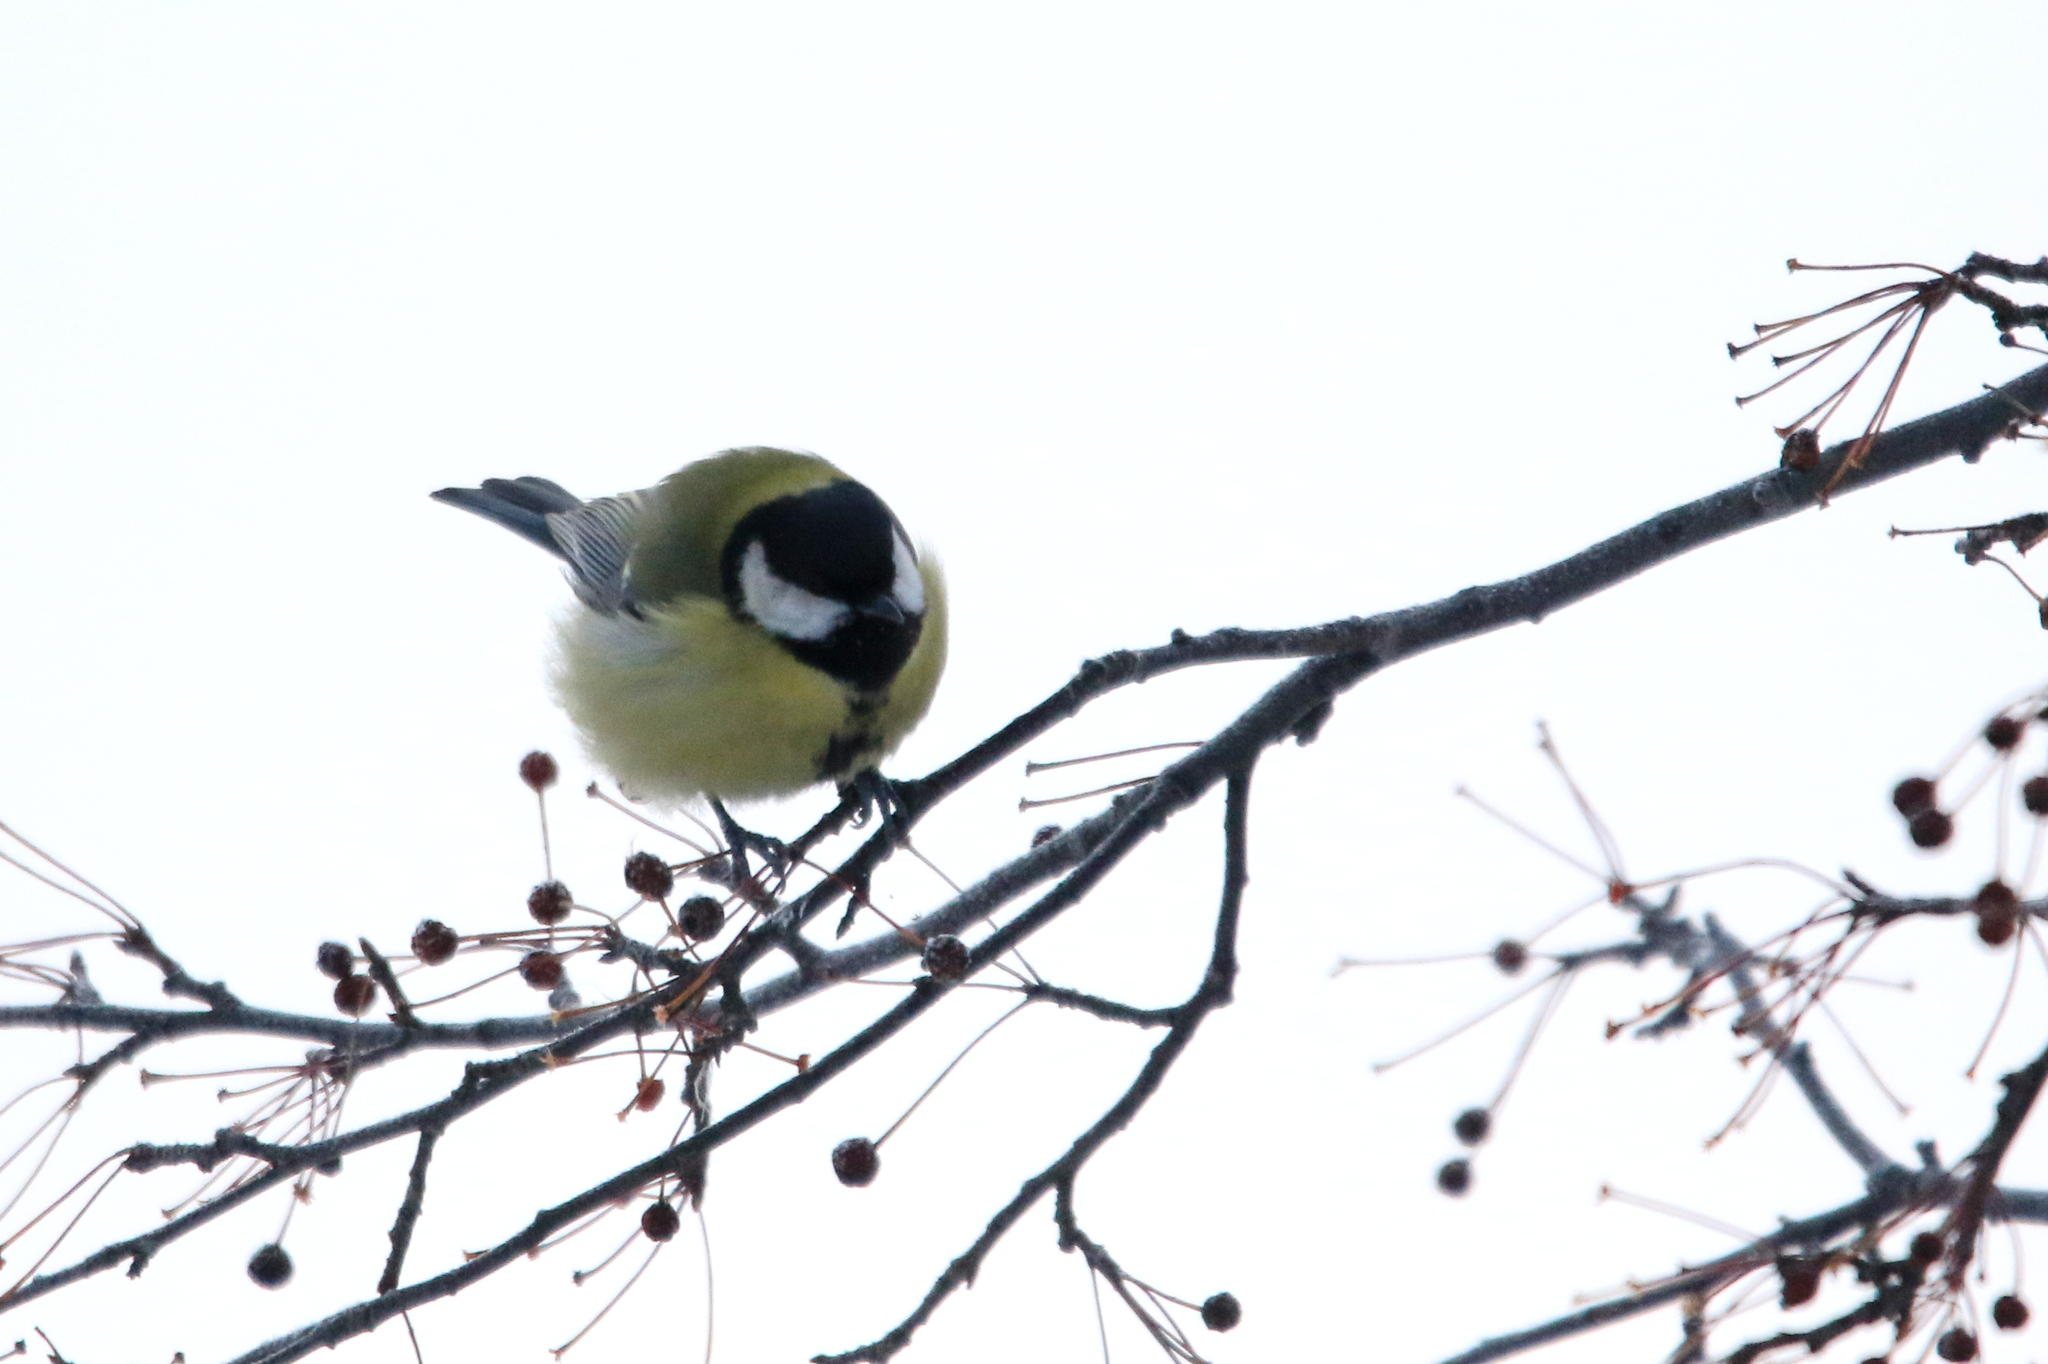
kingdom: Animalia
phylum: Chordata
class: Aves
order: Passeriformes
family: Paridae
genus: Parus
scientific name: Parus major
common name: Great tit
